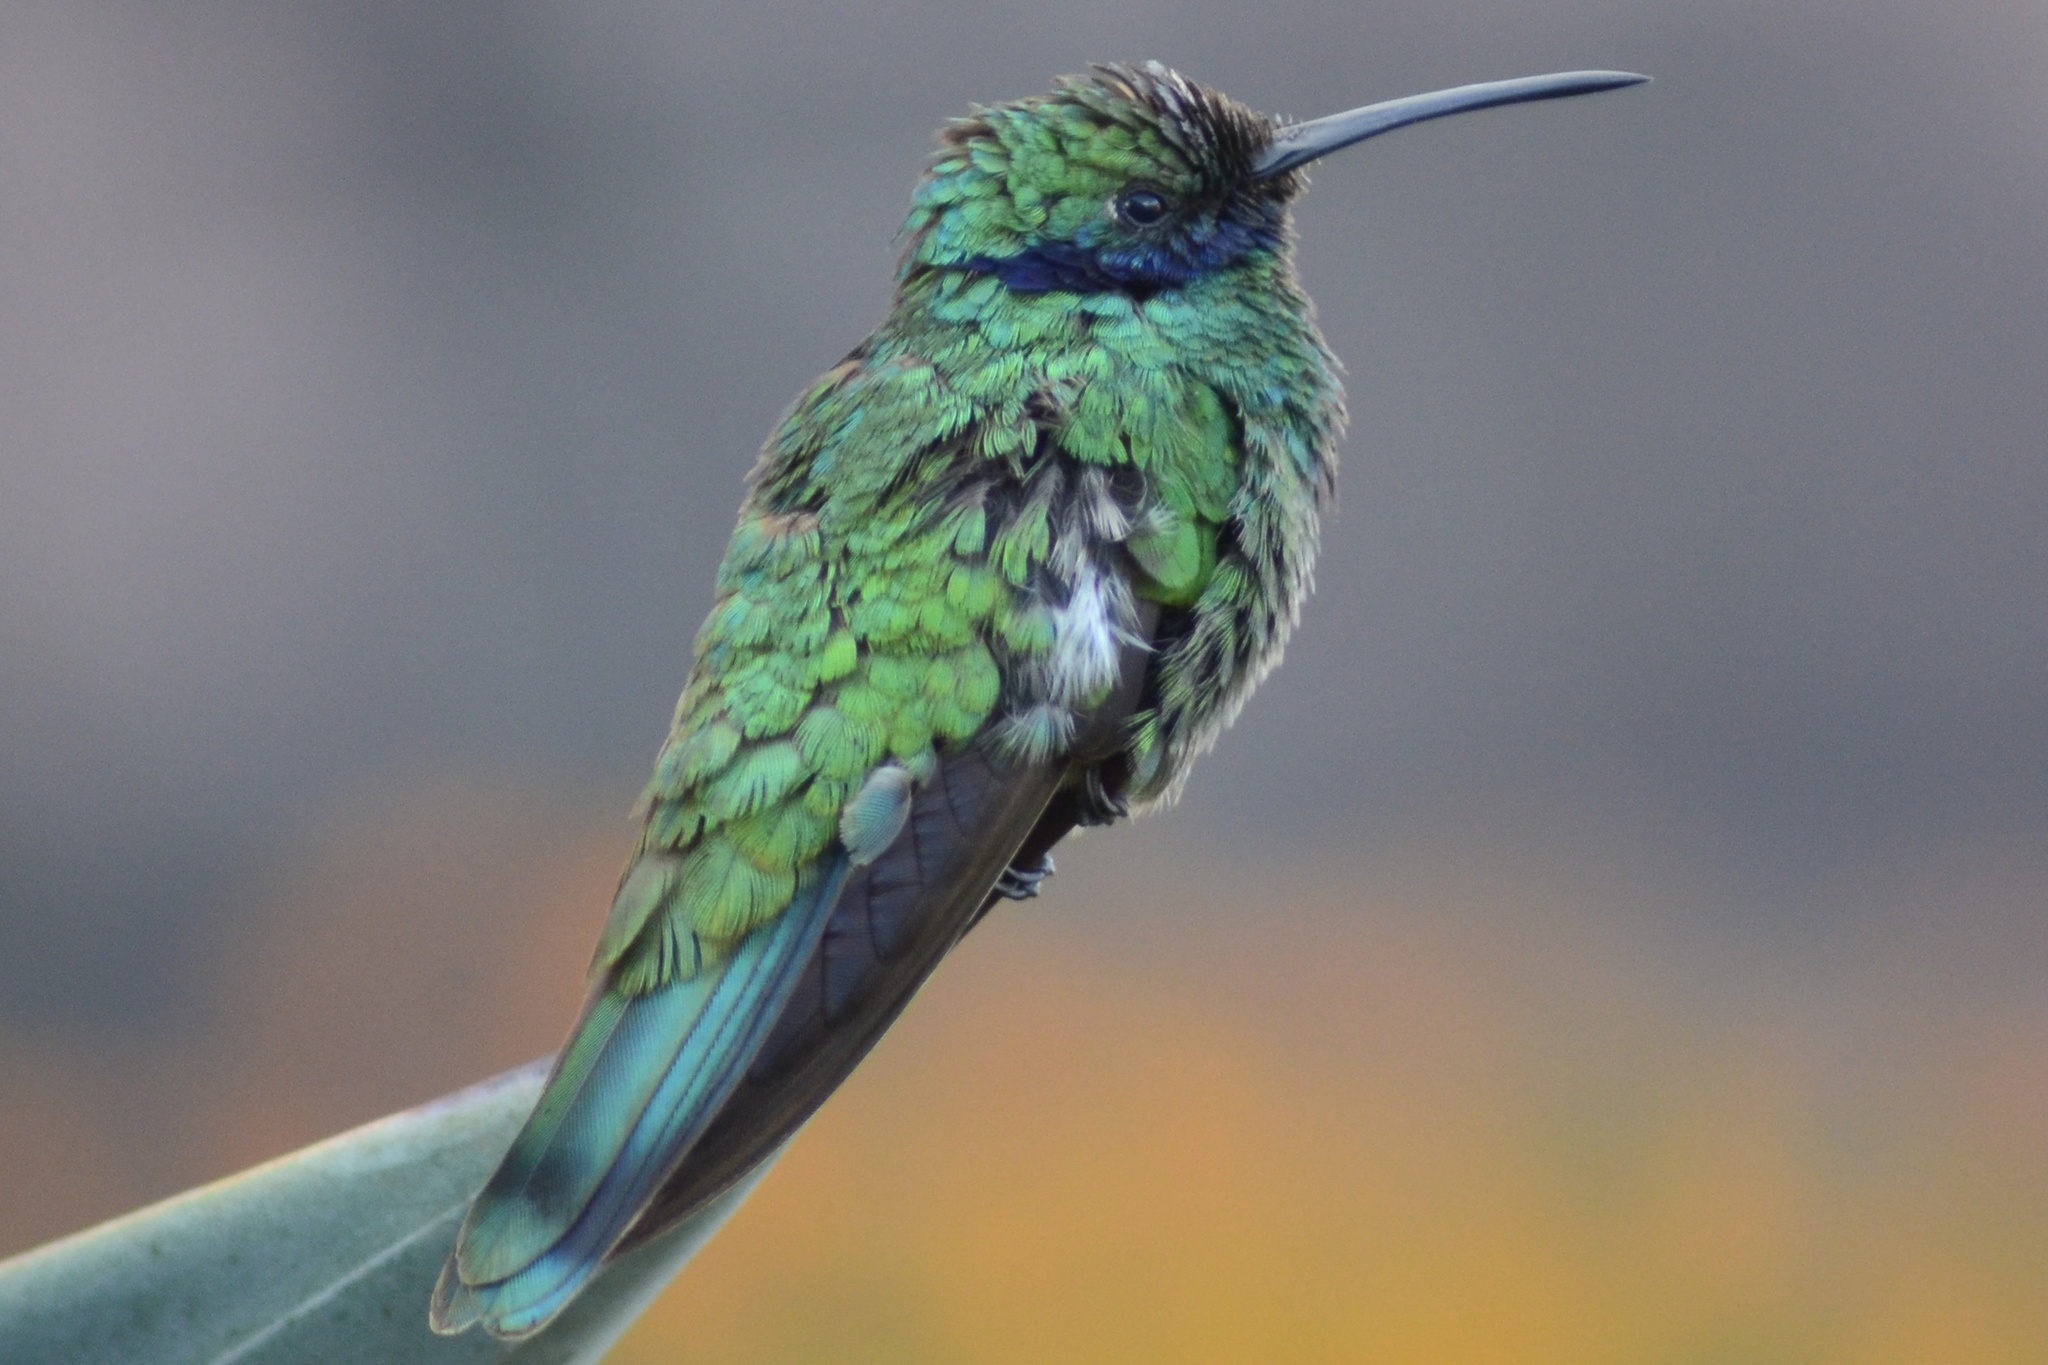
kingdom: Animalia
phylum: Chordata
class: Aves
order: Apodiformes
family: Trochilidae
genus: Colibri
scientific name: Colibri coruscans
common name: Sparkling violetear
